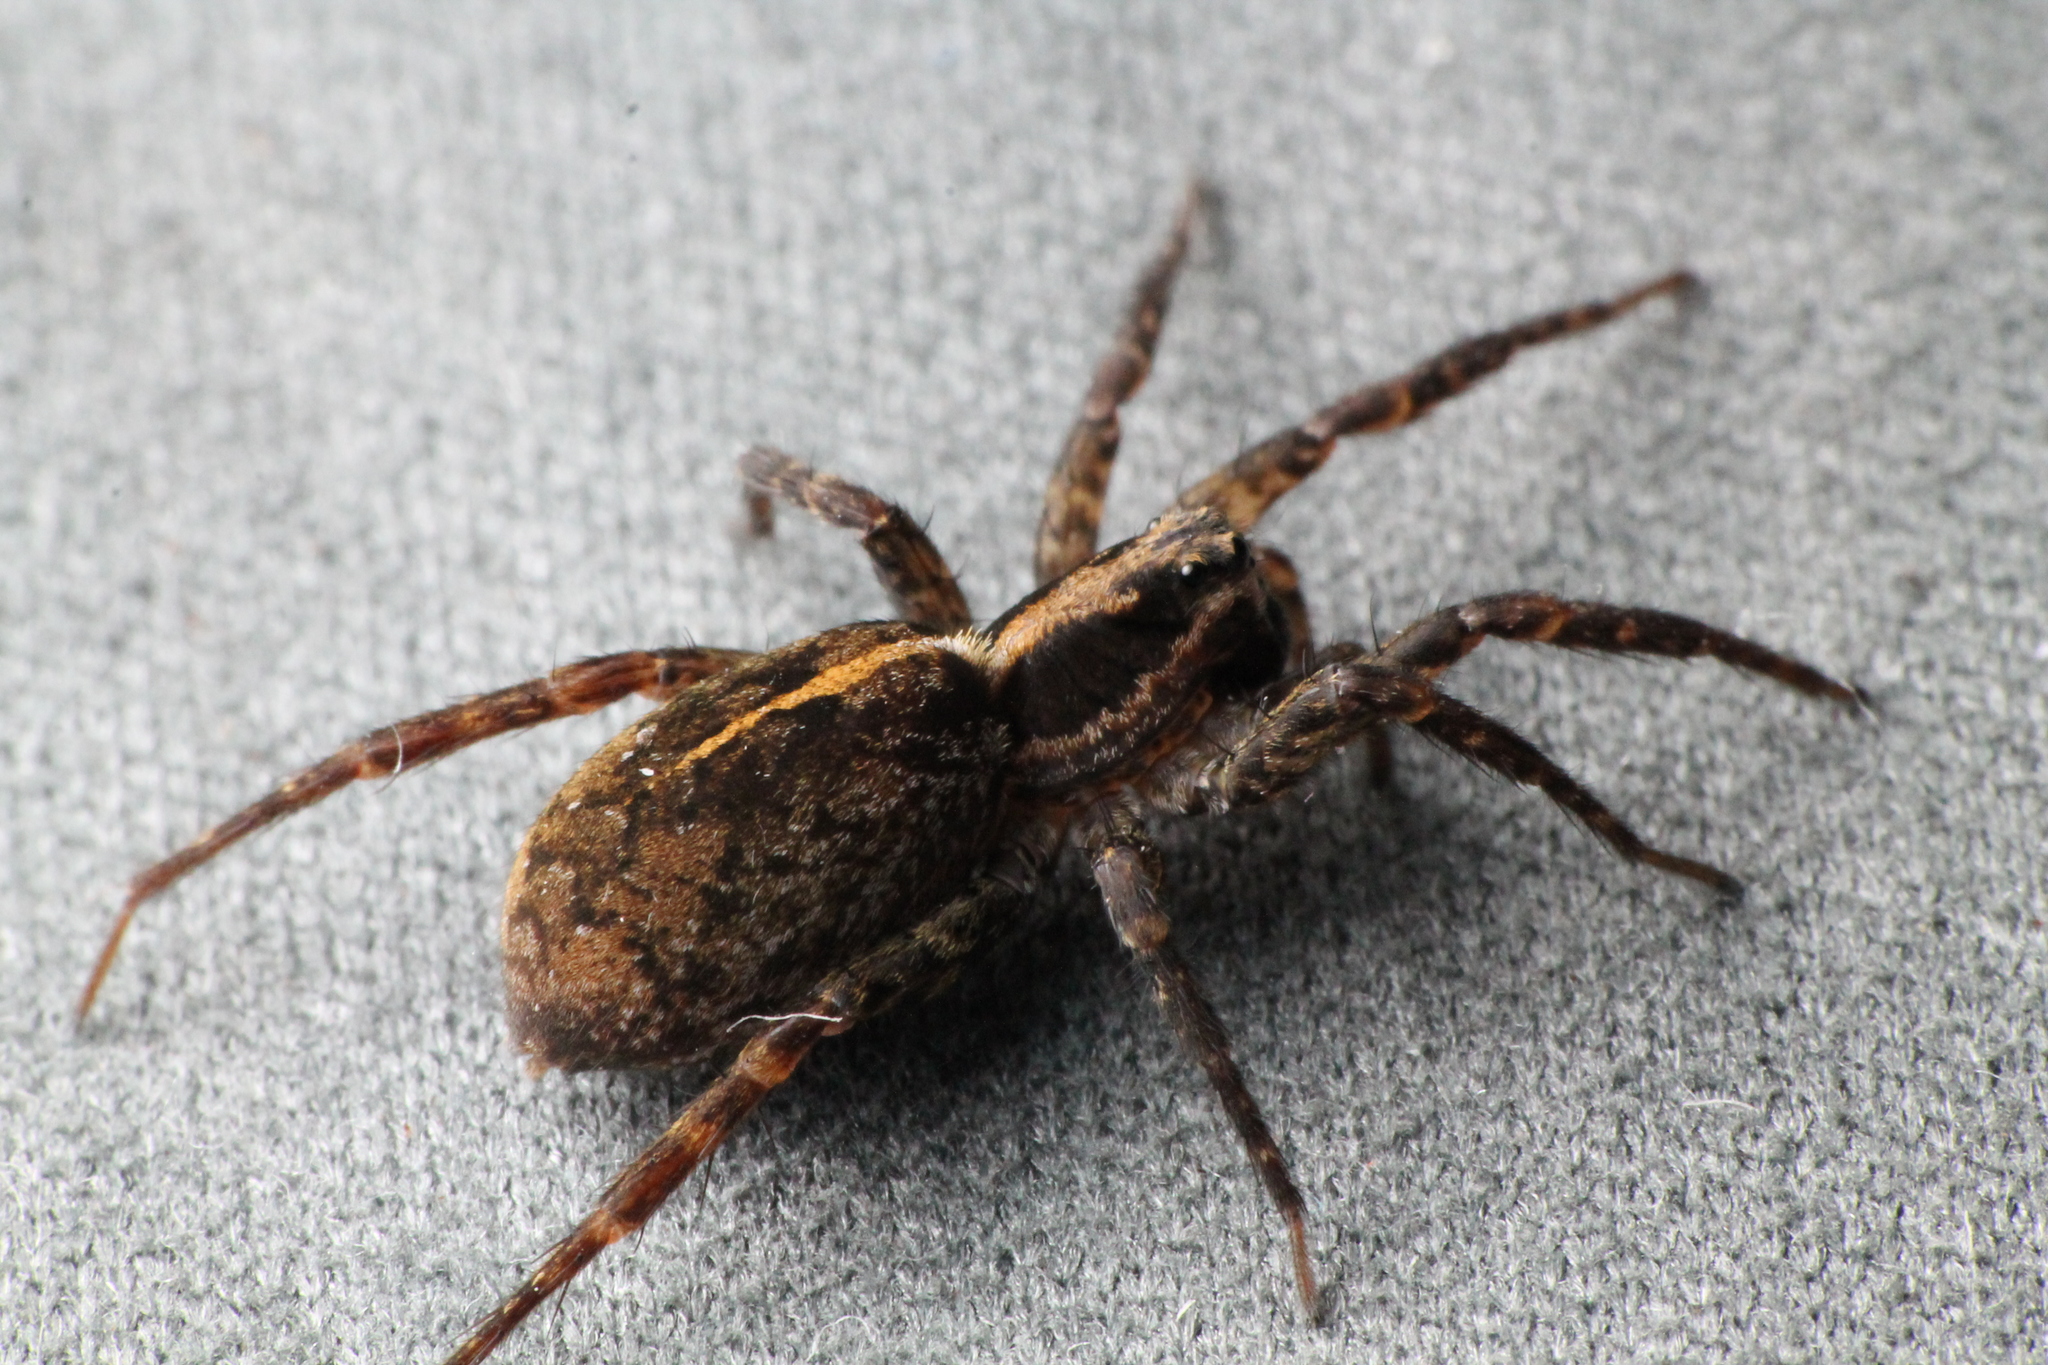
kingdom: Animalia
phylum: Arthropoda
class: Arachnida
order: Araneae
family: Lycosidae
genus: Anoteropsis
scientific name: Anoteropsis hilaris
